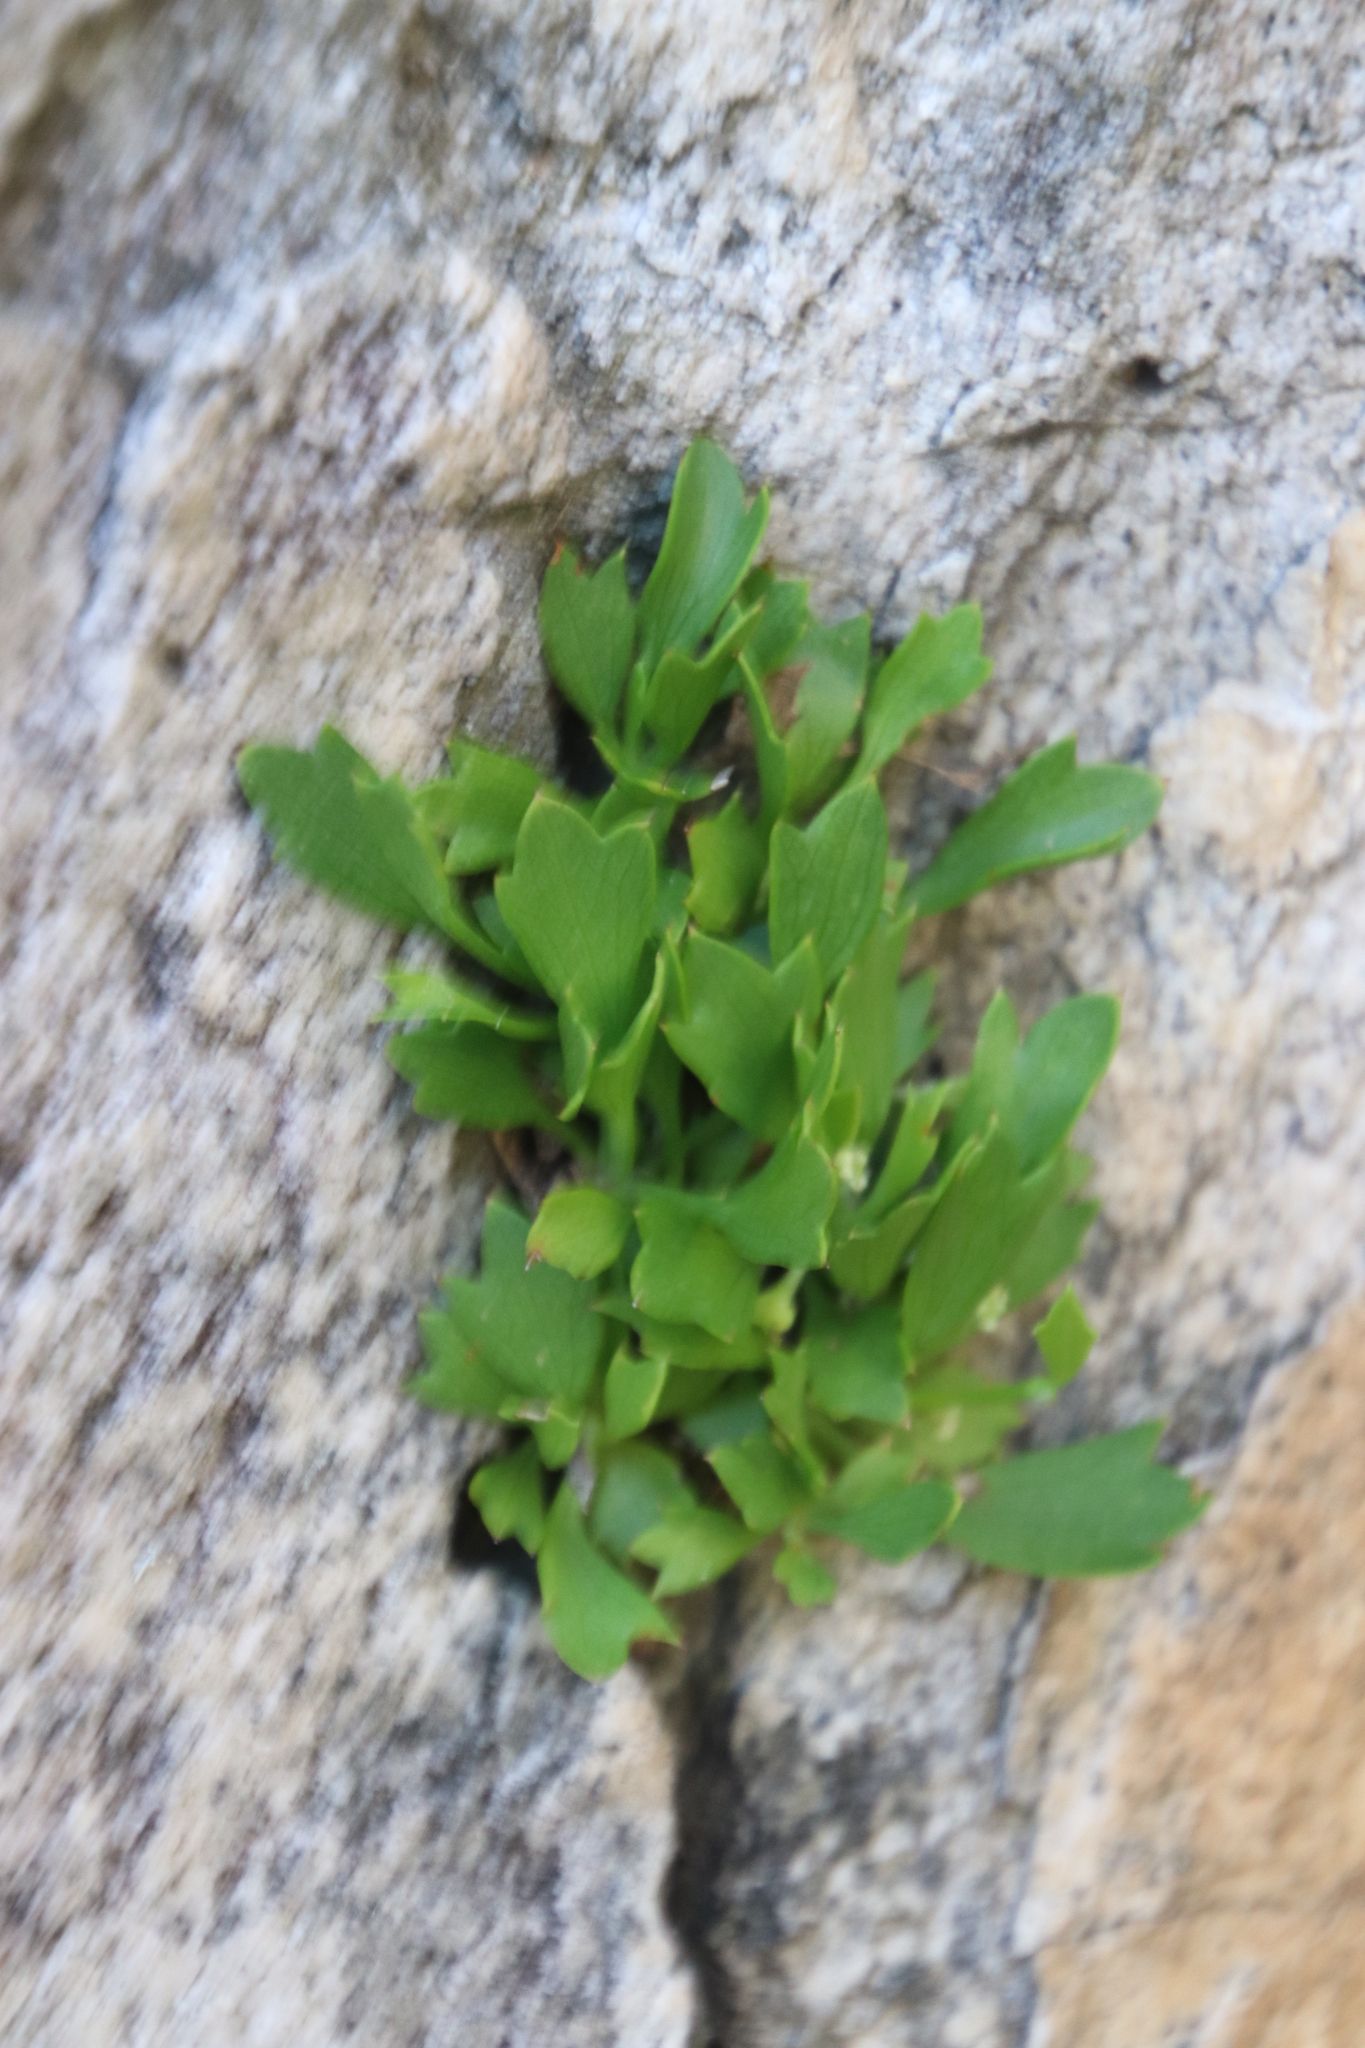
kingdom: Plantae
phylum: Tracheophyta
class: Magnoliopsida
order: Apiales
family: Apiaceae
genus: Centella
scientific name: Centella triloba
